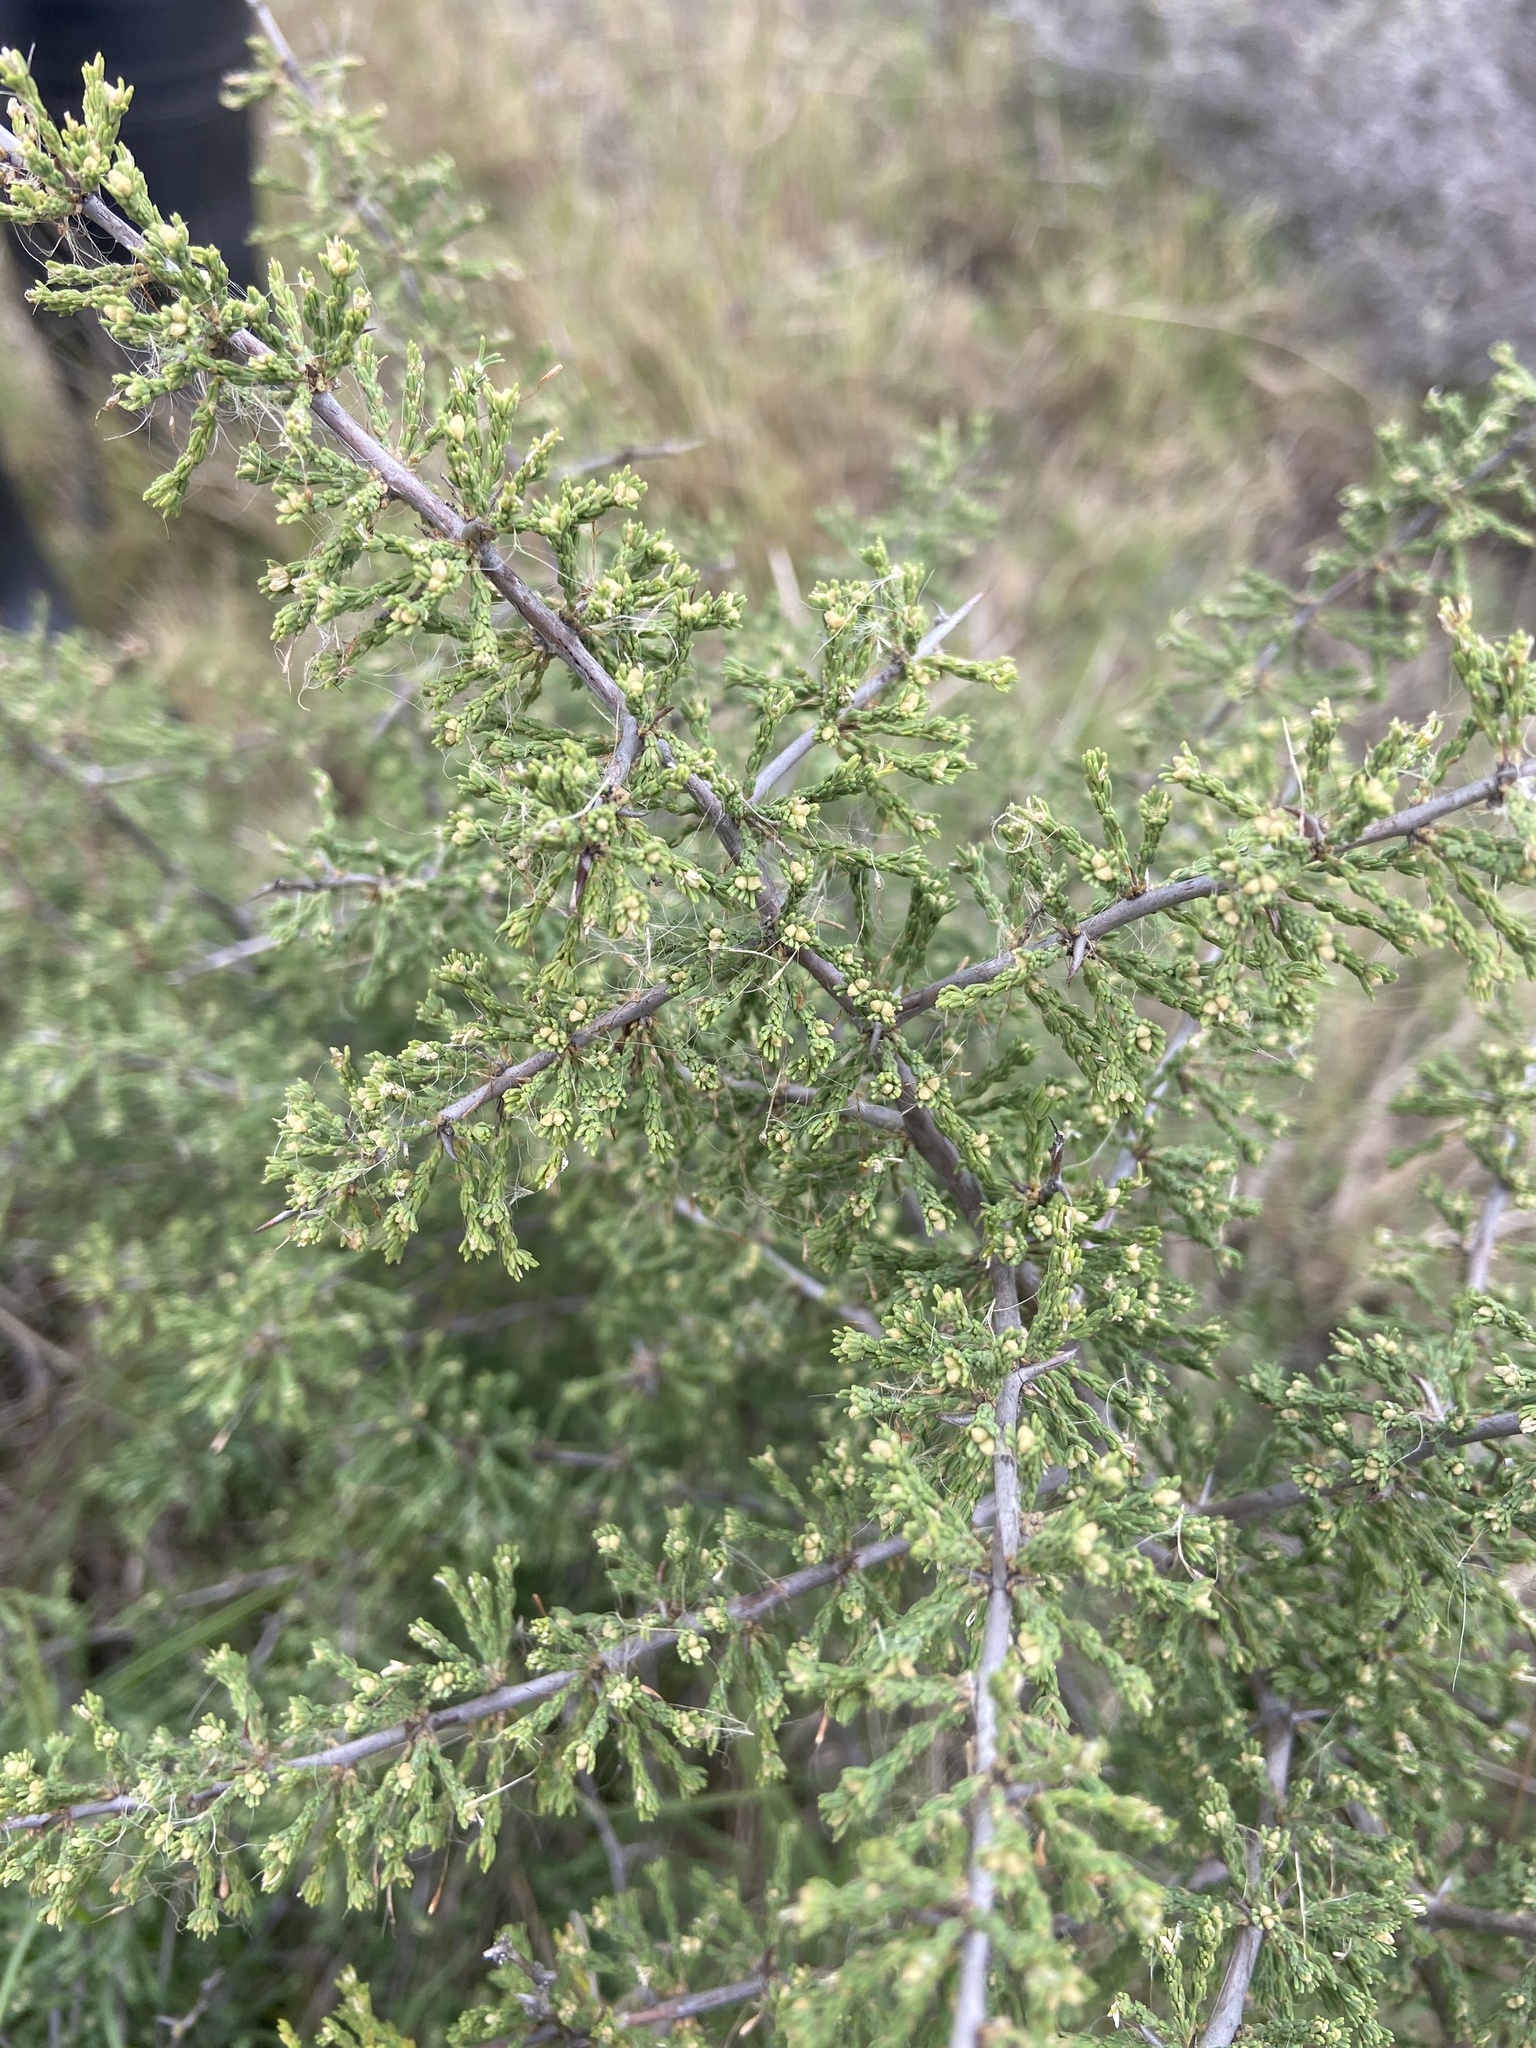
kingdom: Plantae
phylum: Tracheophyta
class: Liliopsida
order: Asparagales
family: Asparagaceae
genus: Asparagus
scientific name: Asparagus capensis
